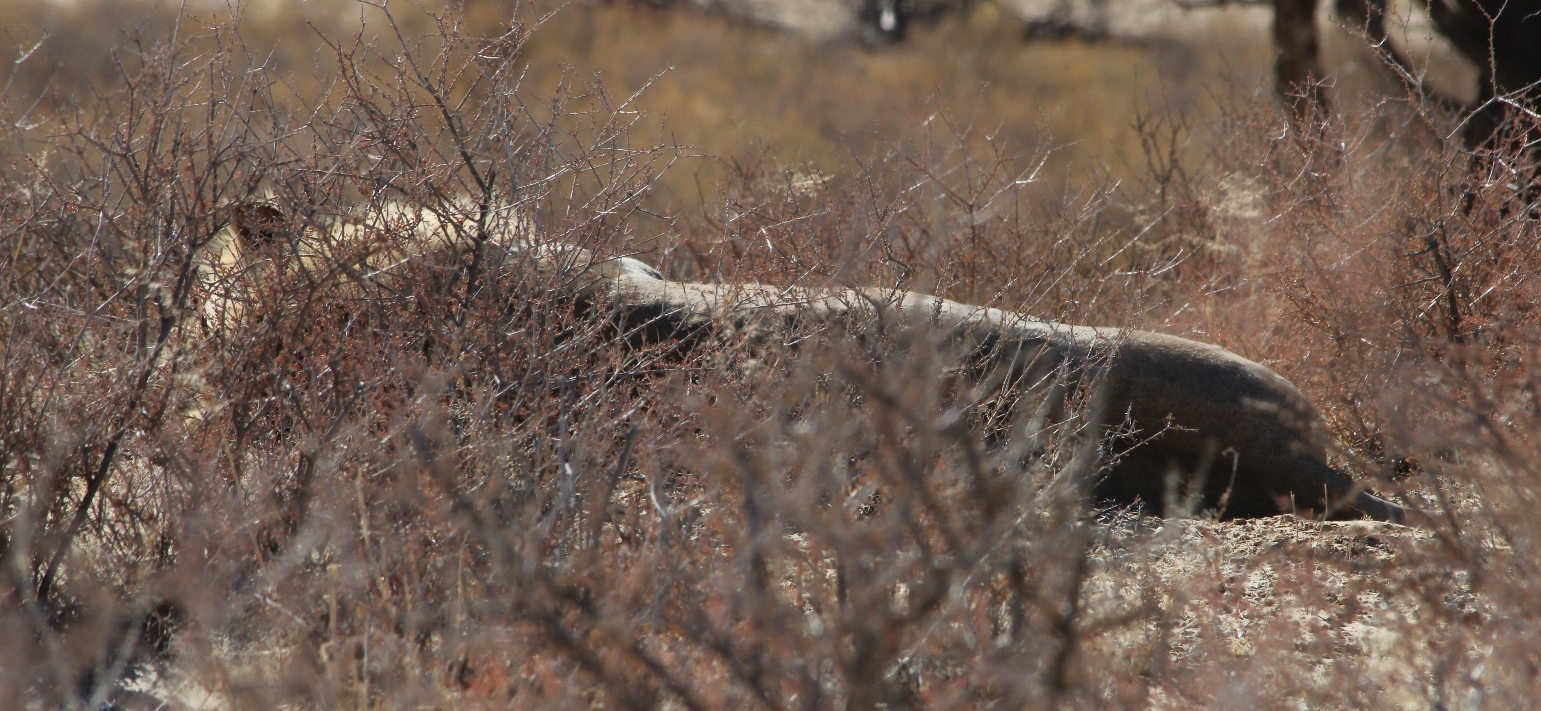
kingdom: Animalia
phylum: Chordata
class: Mammalia
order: Carnivora
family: Felidae
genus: Panthera
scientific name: Panthera leo
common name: Lion
